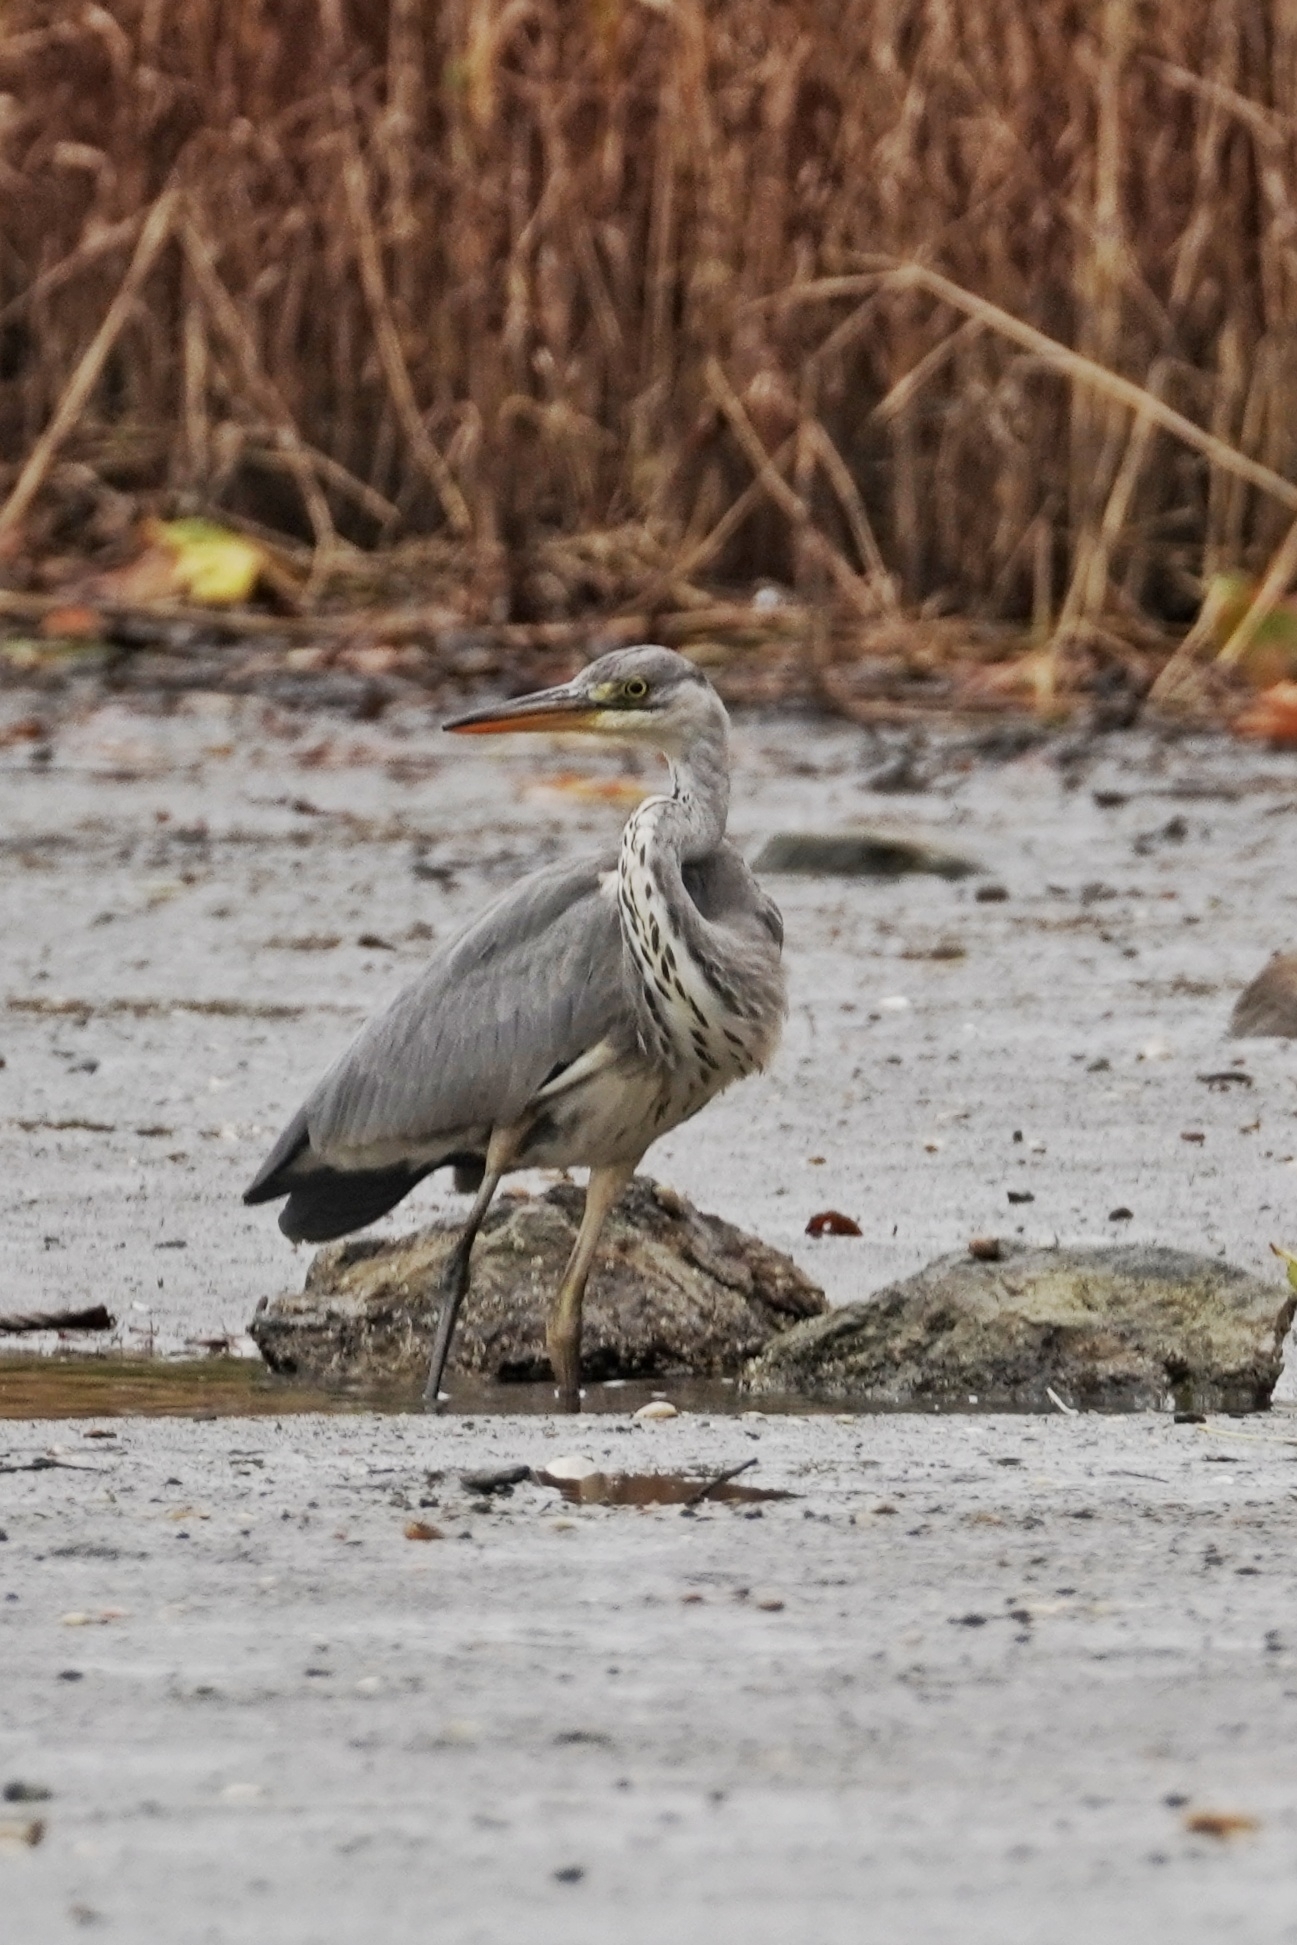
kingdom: Animalia
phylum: Chordata
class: Aves
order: Pelecaniformes
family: Ardeidae
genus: Ardea
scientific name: Ardea cinerea
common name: Grey heron
